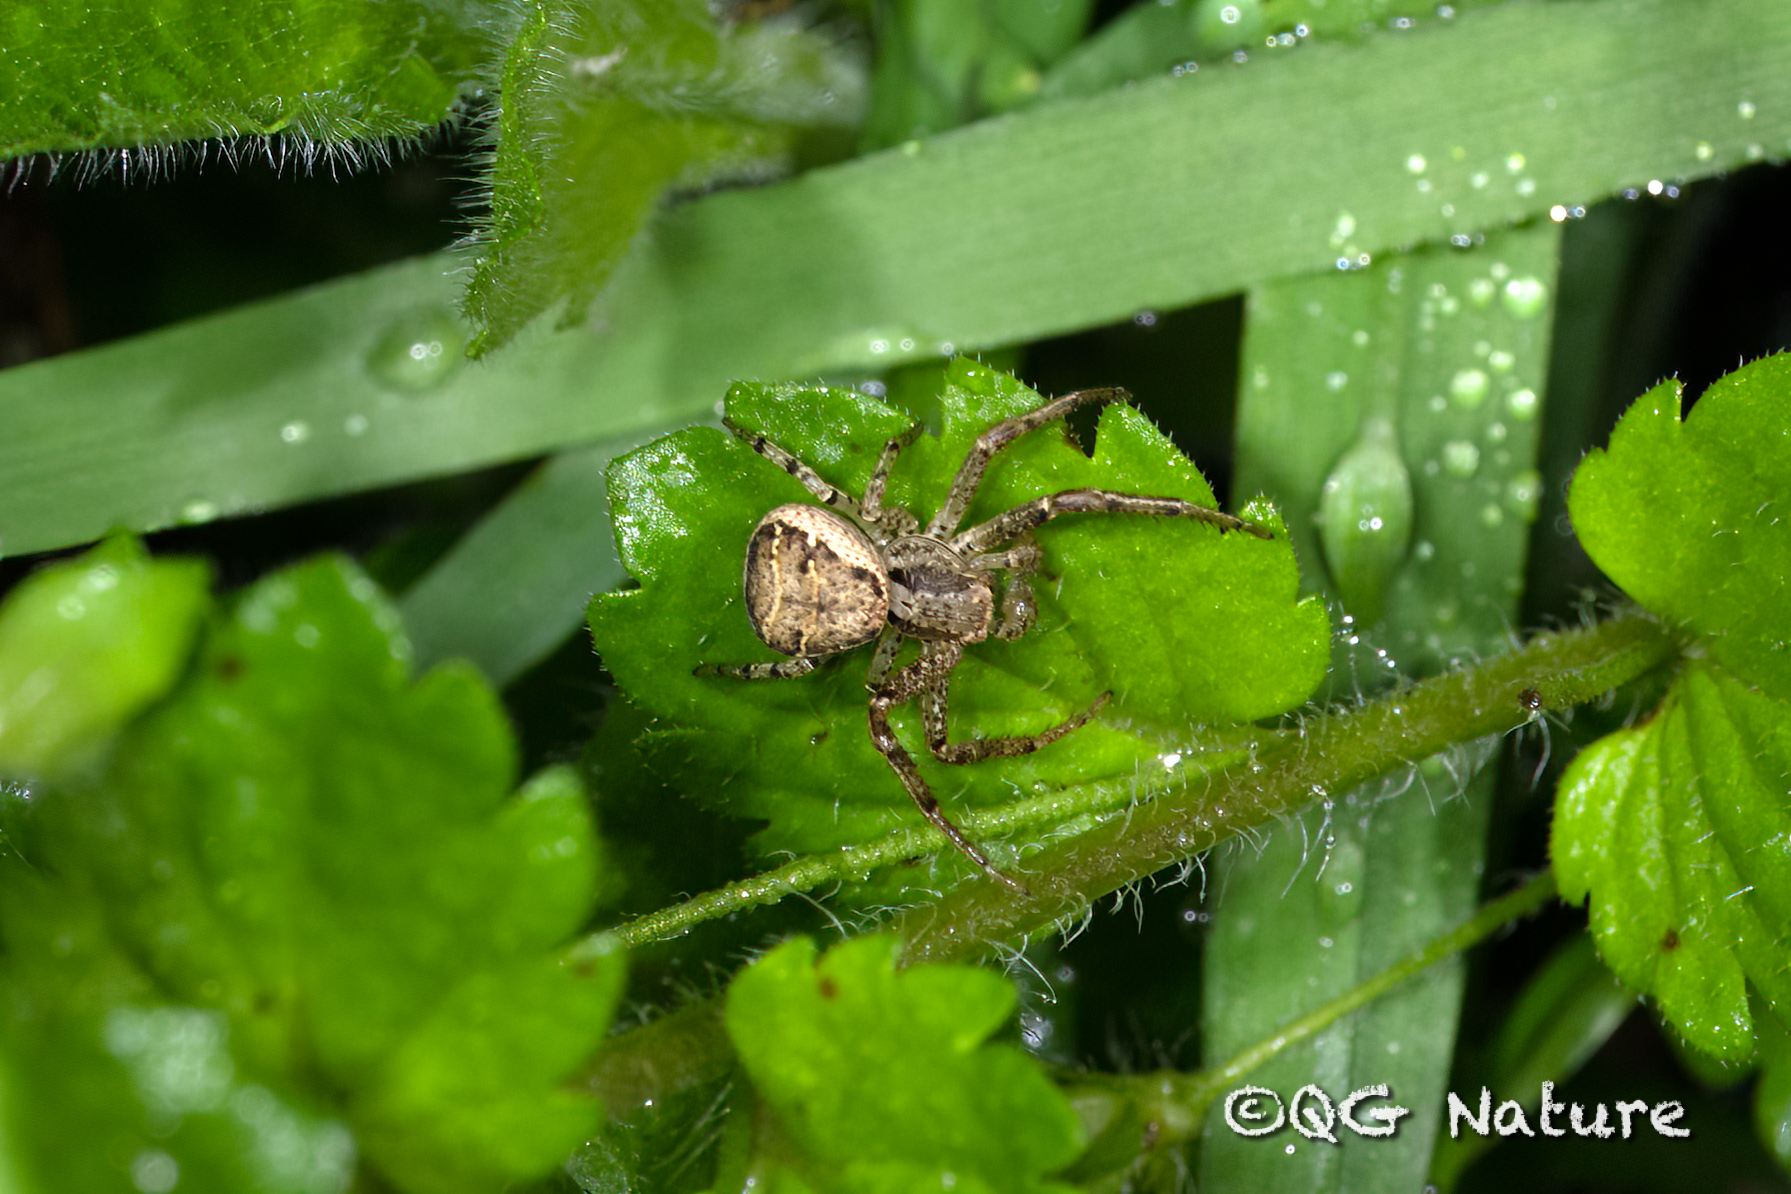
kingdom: Animalia
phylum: Arthropoda
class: Arachnida
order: Araneae
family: Thomisidae
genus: Xysticus
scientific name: Xysticus croceus
